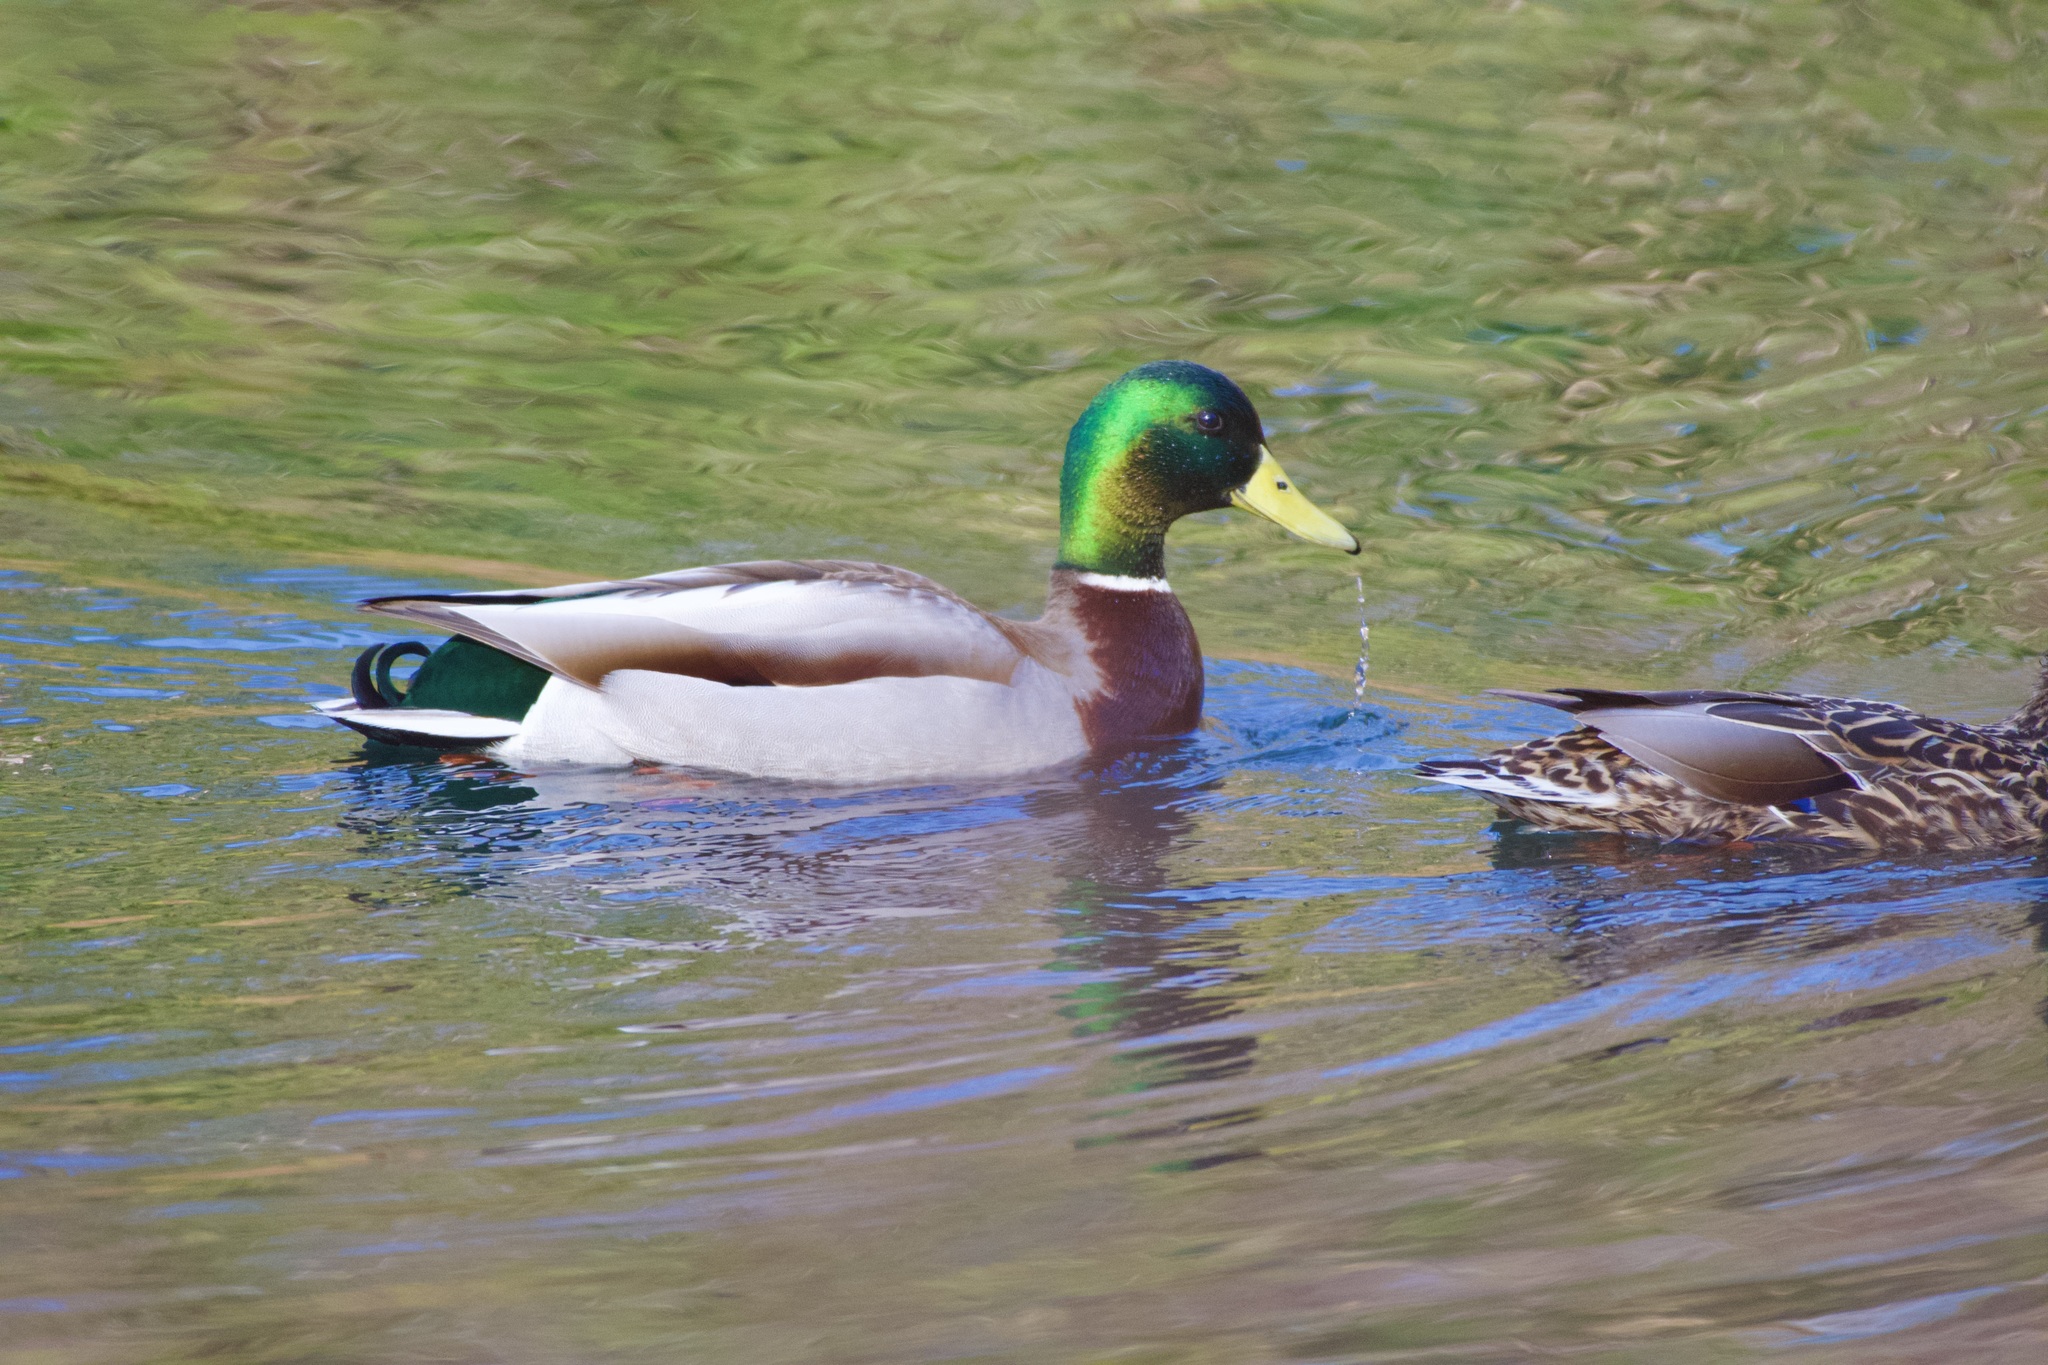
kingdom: Animalia
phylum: Chordata
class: Aves
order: Anseriformes
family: Anatidae
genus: Anas
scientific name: Anas platyrhynchos
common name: Mallard
